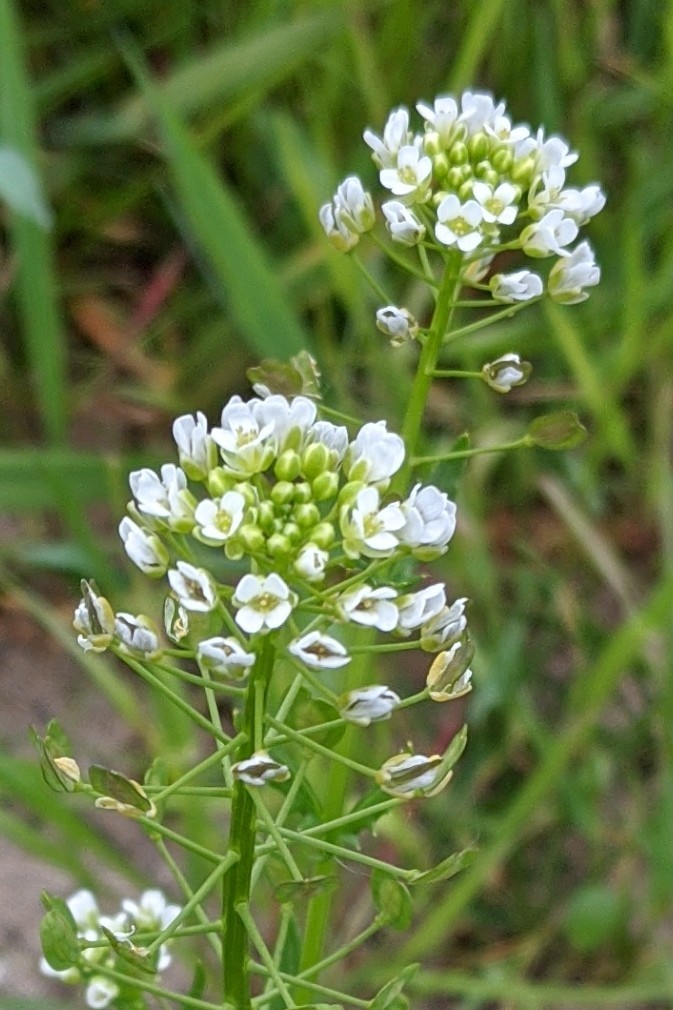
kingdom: Plantae
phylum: Tracheophyta
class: Magnoliopsida
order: Brassicales
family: Brassicaceae
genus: Thlaspi
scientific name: Thlaspi arvense
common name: Field pennycress
